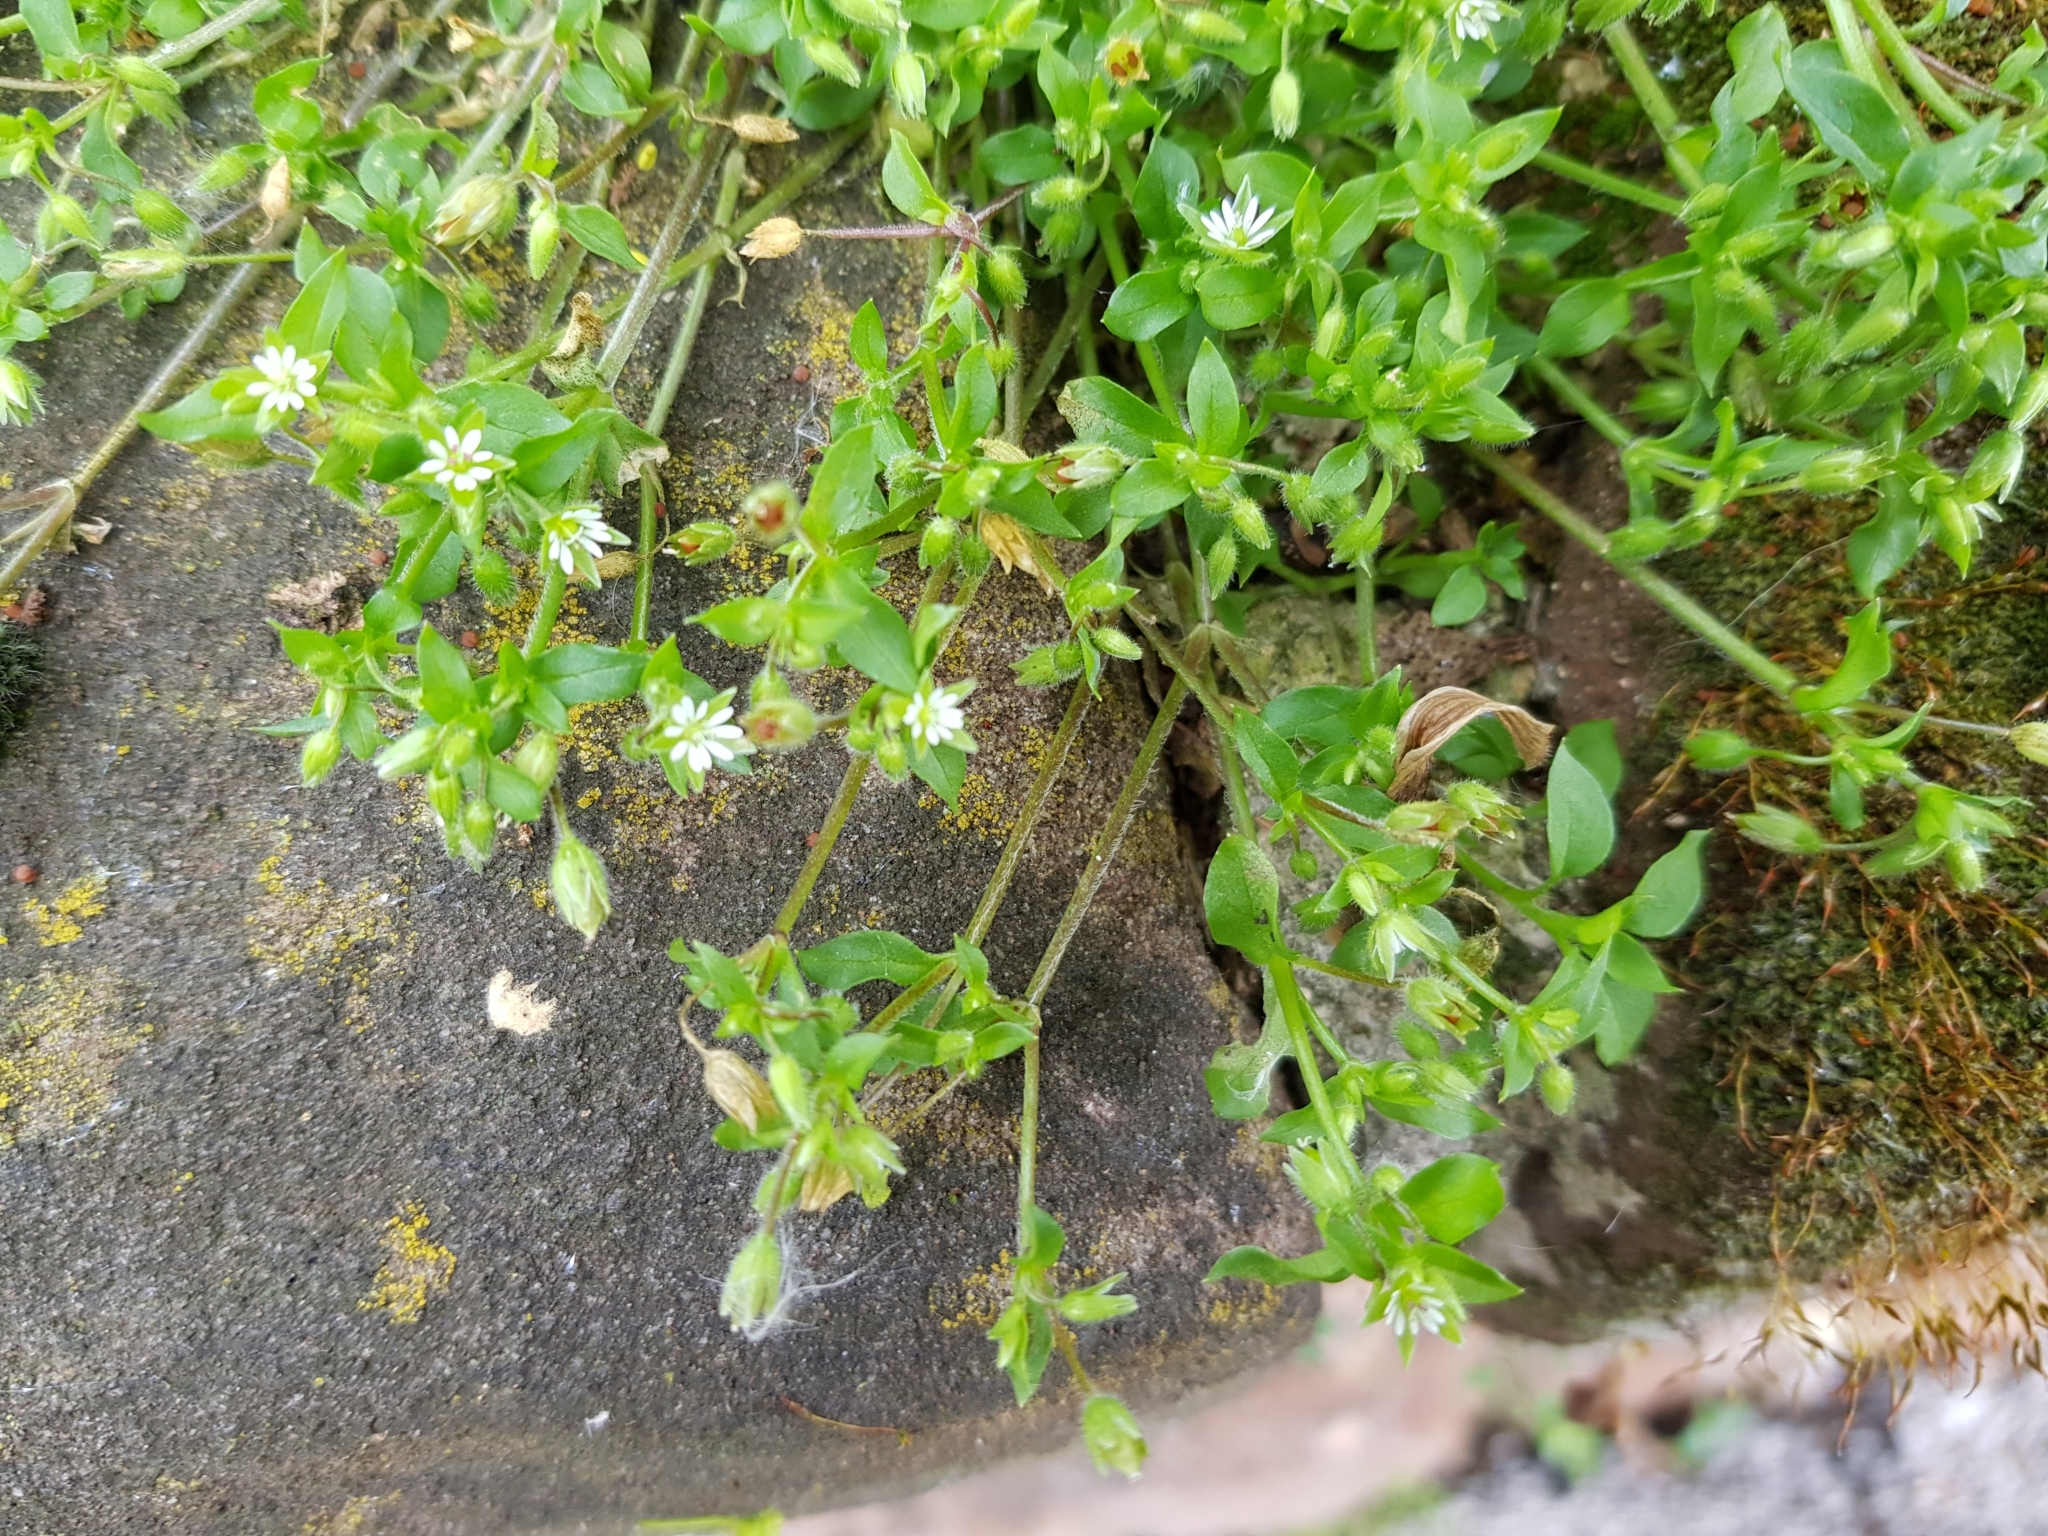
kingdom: Plantae
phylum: Tracheophyta
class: Magnoliopsida
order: Caryophyllales
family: Caryophyllaceae
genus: Stellaria
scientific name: Stellaria neglecta
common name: Greater chickweed
